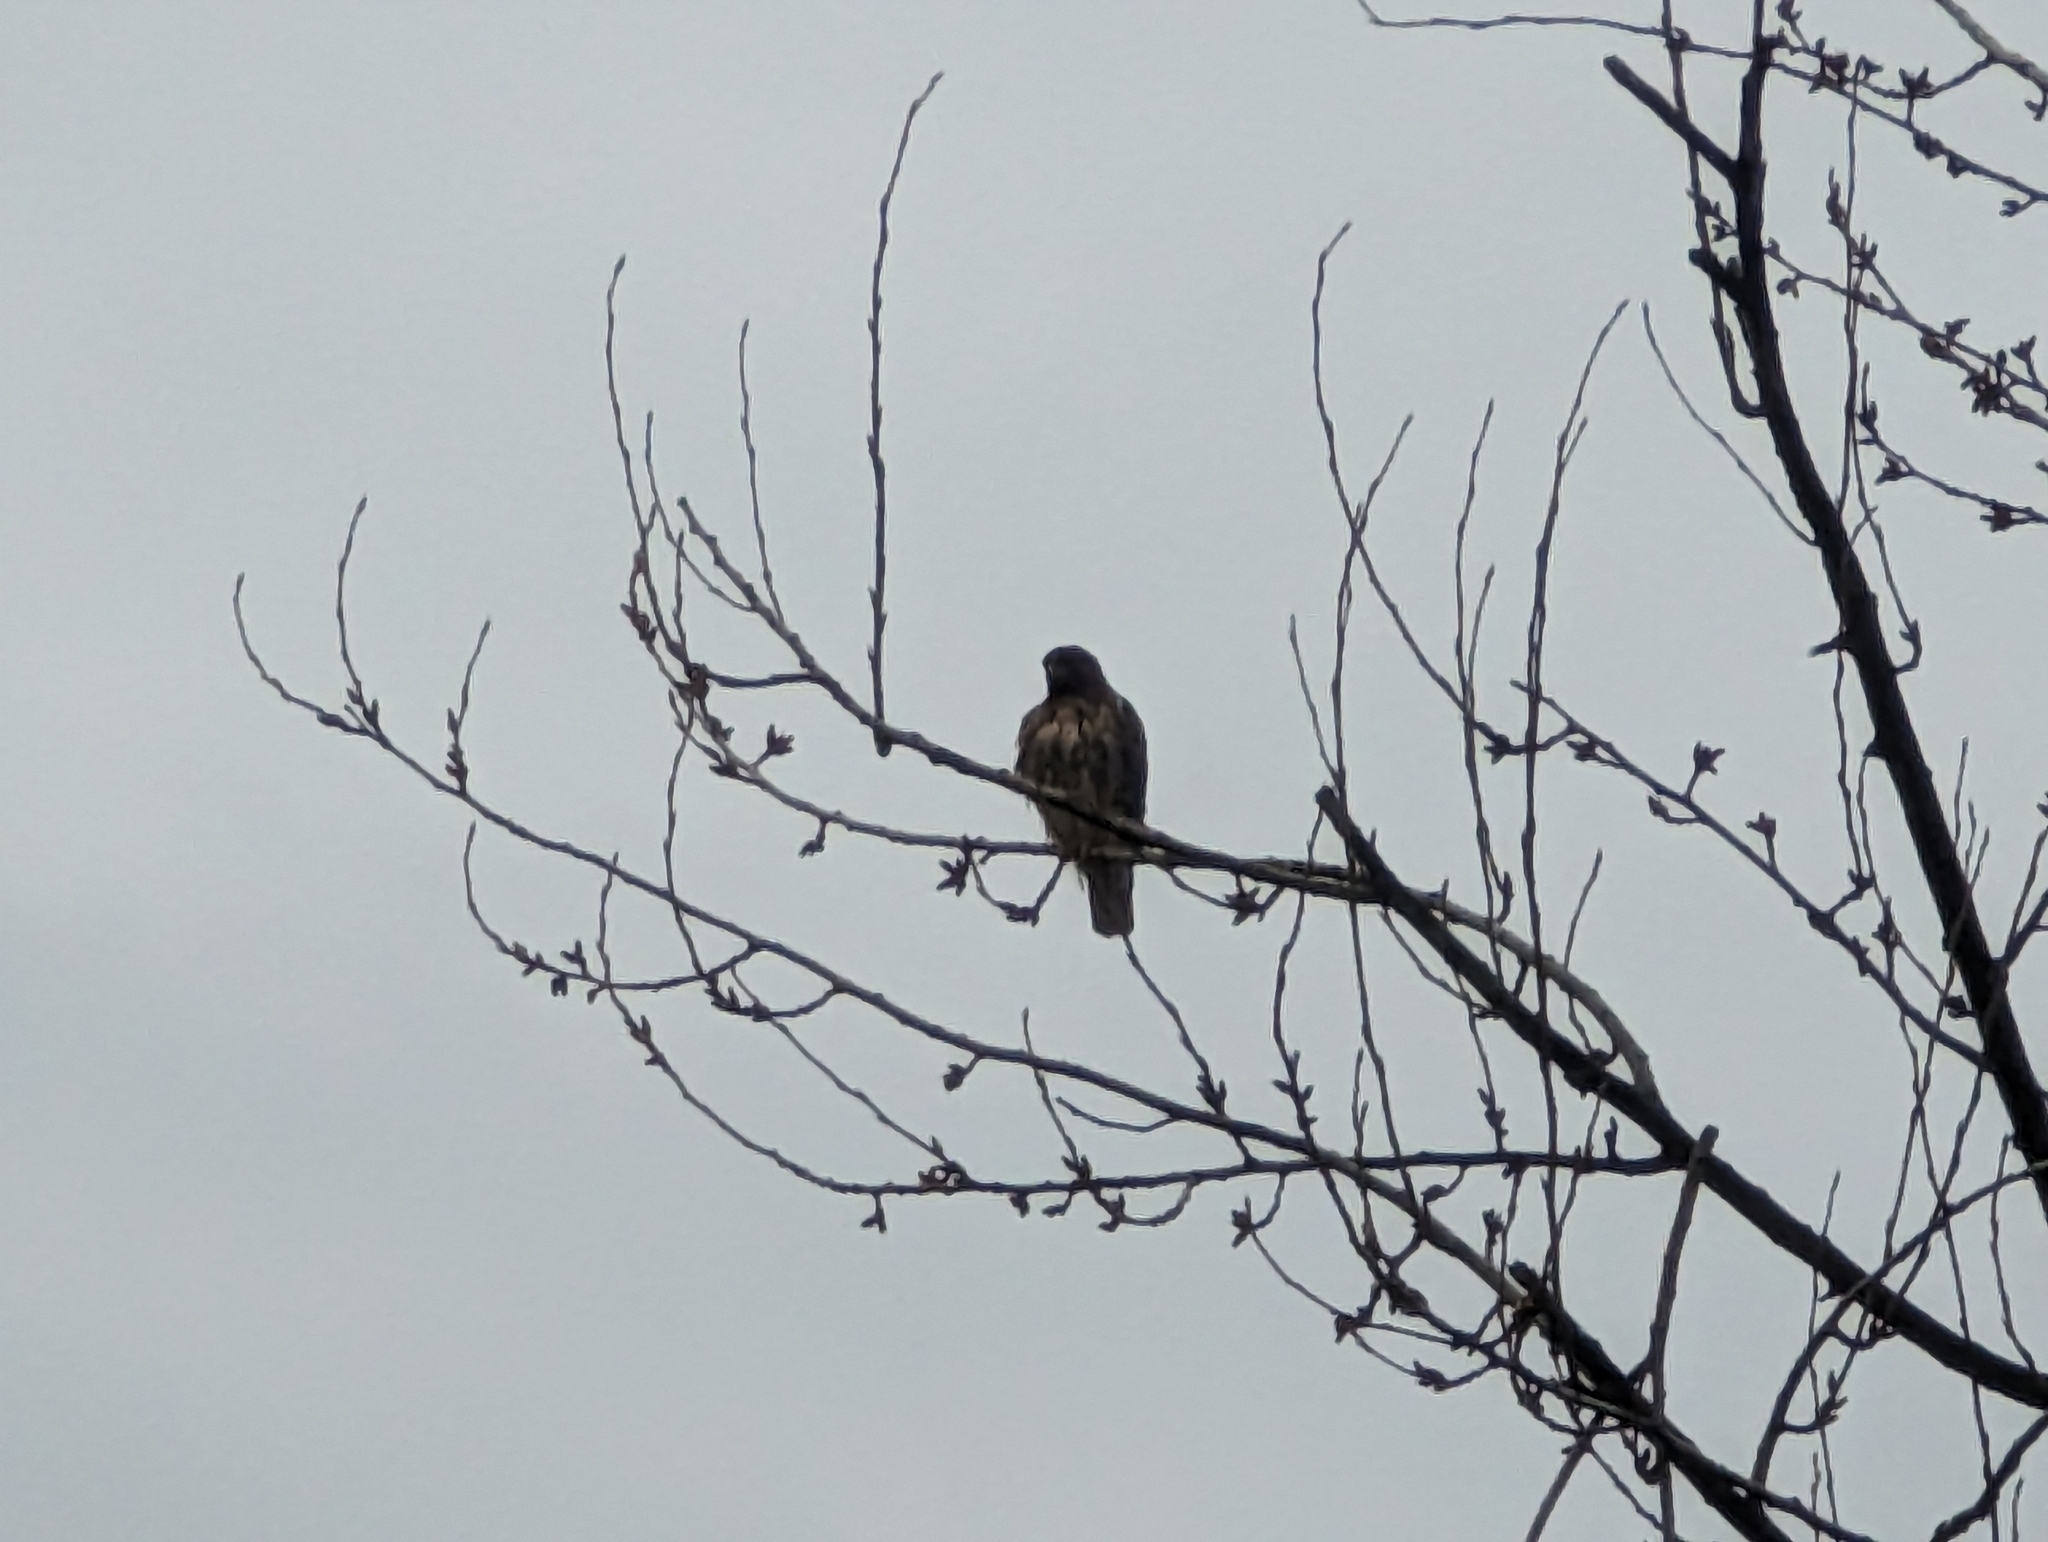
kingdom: Animalia
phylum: Chordata
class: Aves
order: Accipitriformes
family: Accipitridae
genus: Buteo
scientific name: Buteo jamaicensis
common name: Red-tailed hawk
